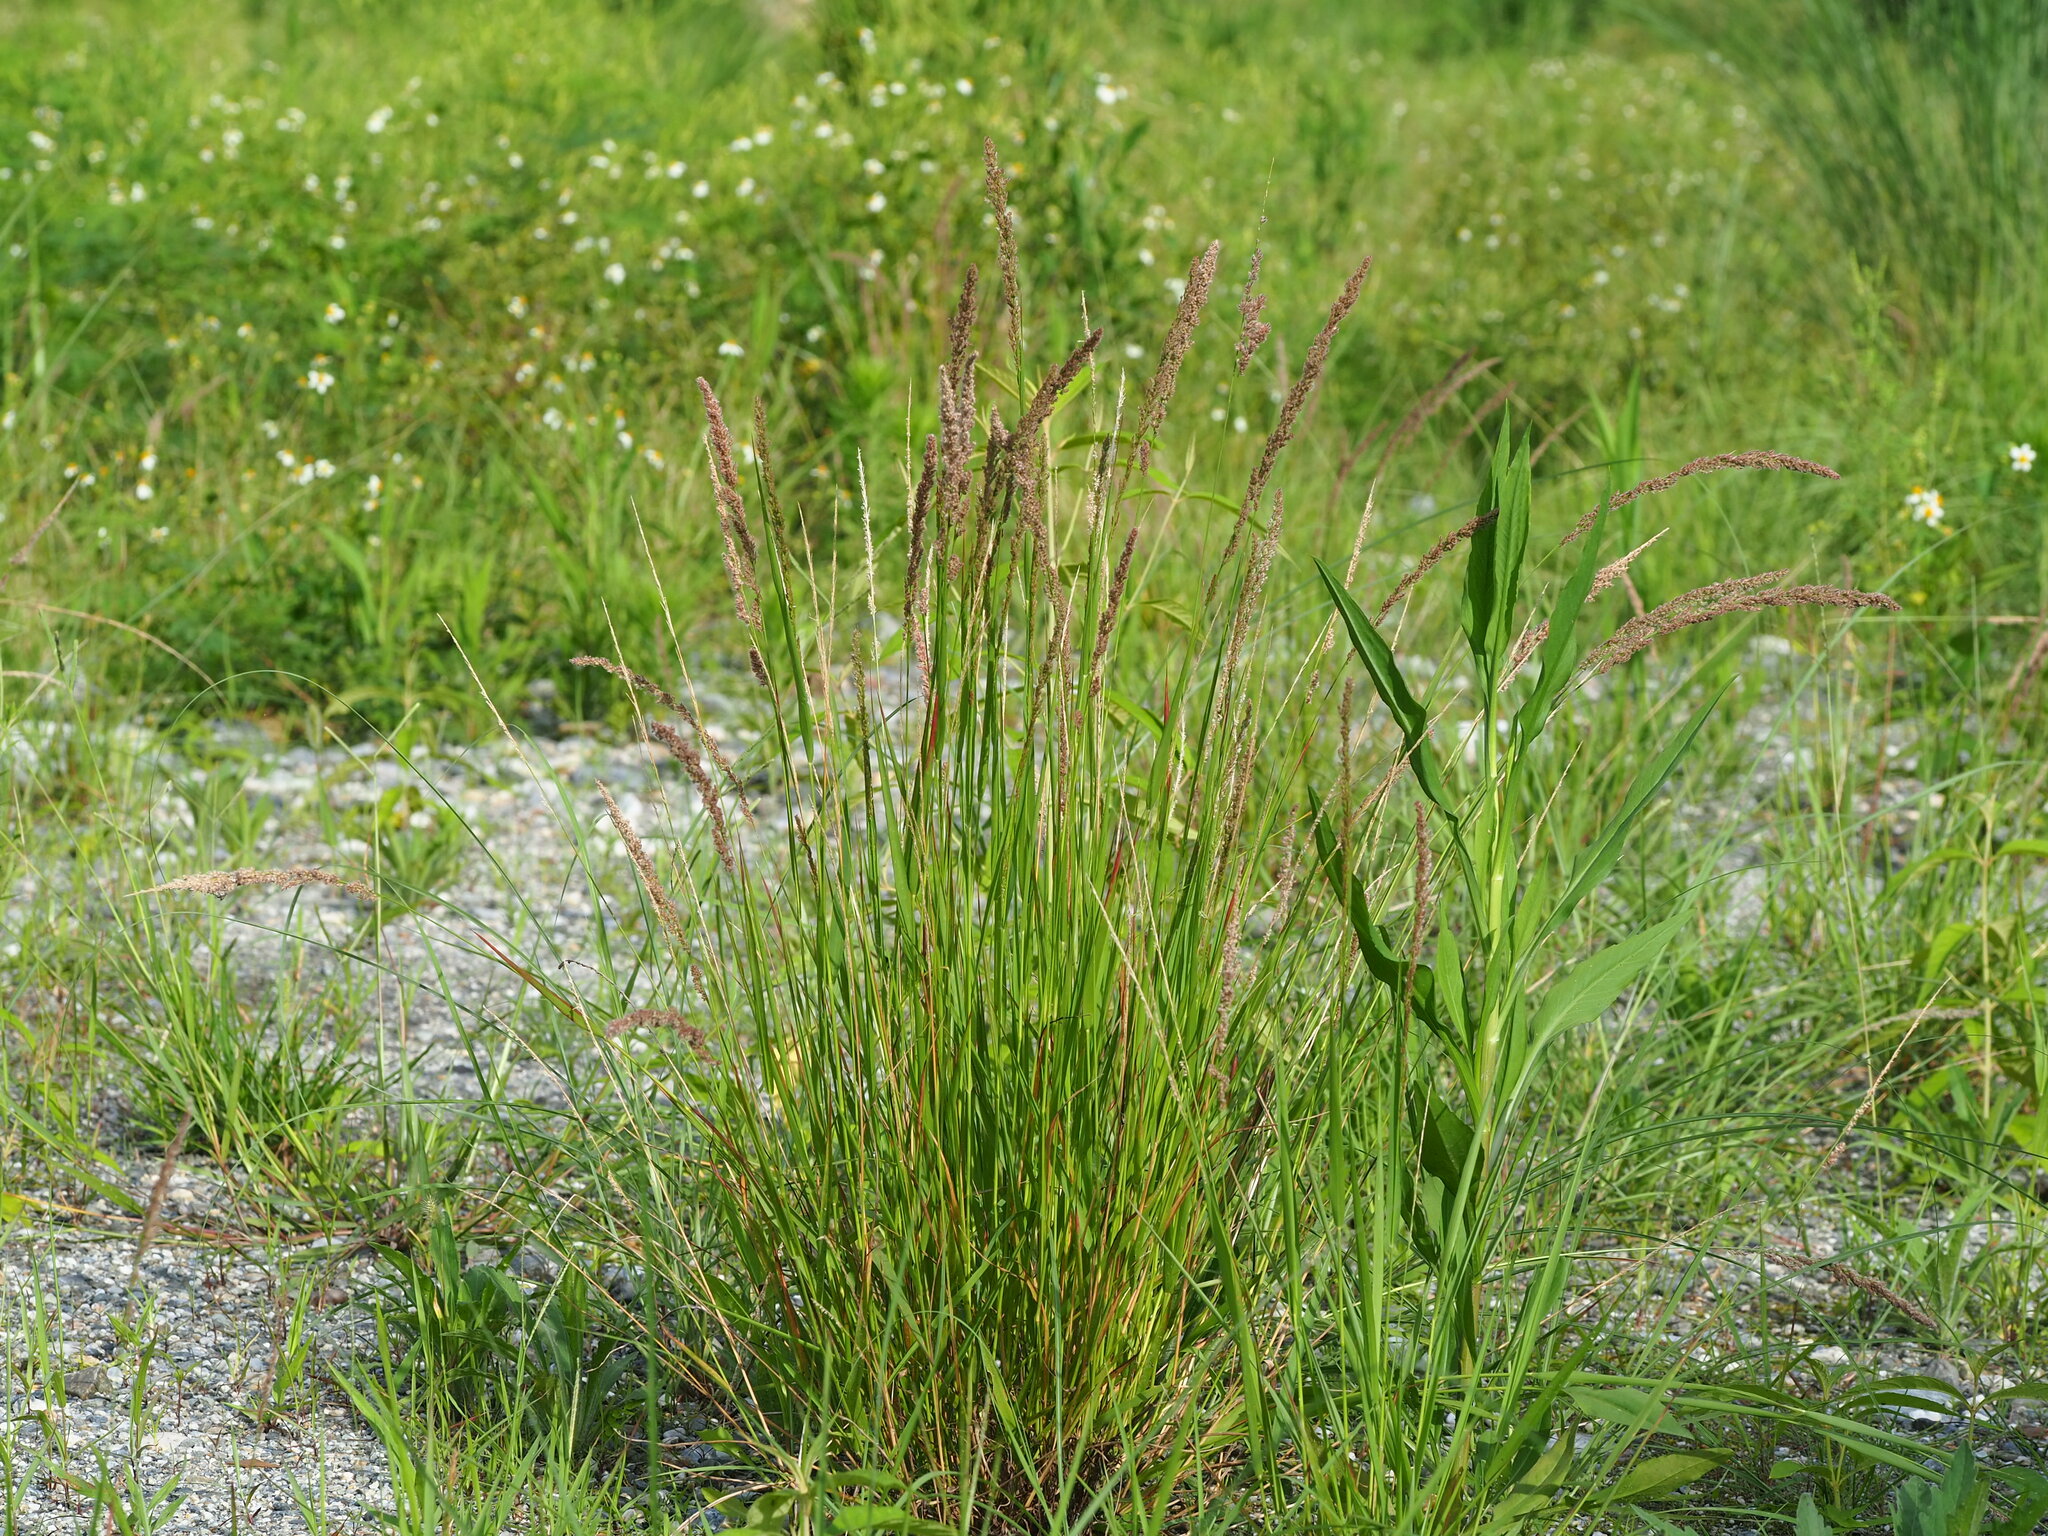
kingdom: Plantae
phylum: Tracheophyta
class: Liliopsida
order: Poales
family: Poaceae
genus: Eragrostis
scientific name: Eragrostis ciliaris
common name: Gophertail lovegrass
